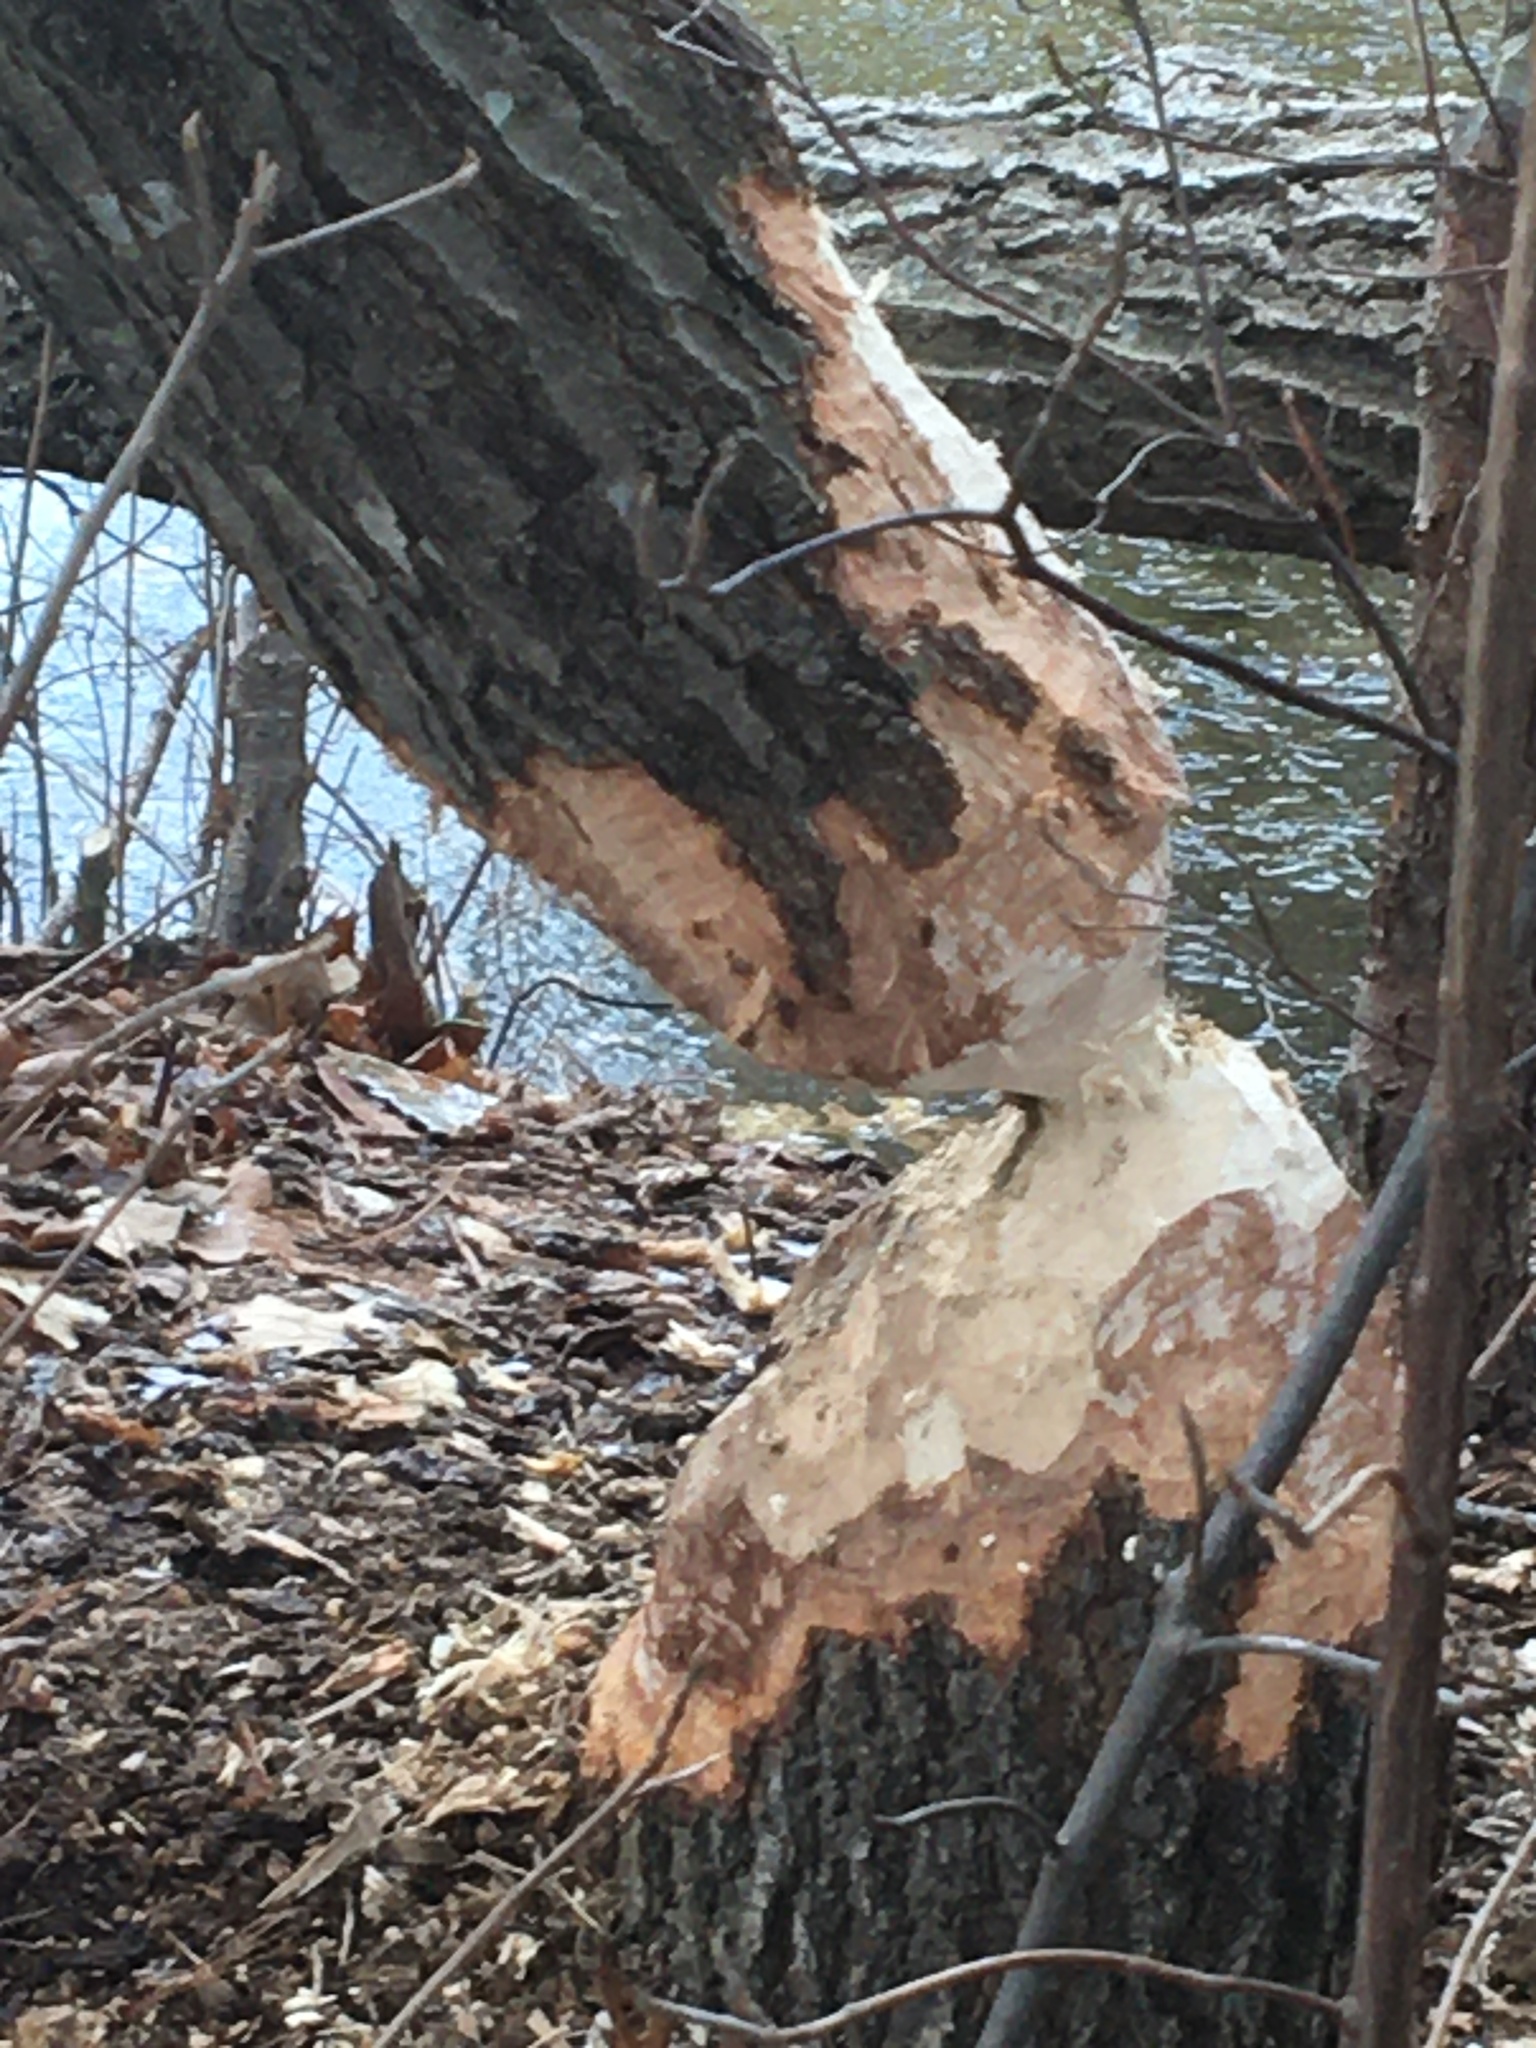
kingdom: Animalia
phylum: Chordata
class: Mammalia
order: Rodentia
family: Castoridae
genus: Castor
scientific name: Castor canadensis
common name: American beaver
